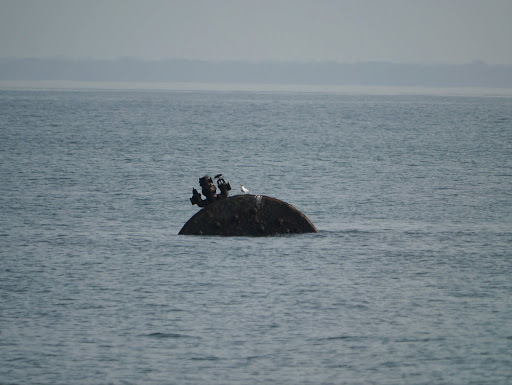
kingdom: Animalia
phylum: Chordata
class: Aves
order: Charadriiformes
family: Laridae
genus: Thalasseus
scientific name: Thalasseus albididorsalis
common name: West african crested tern
